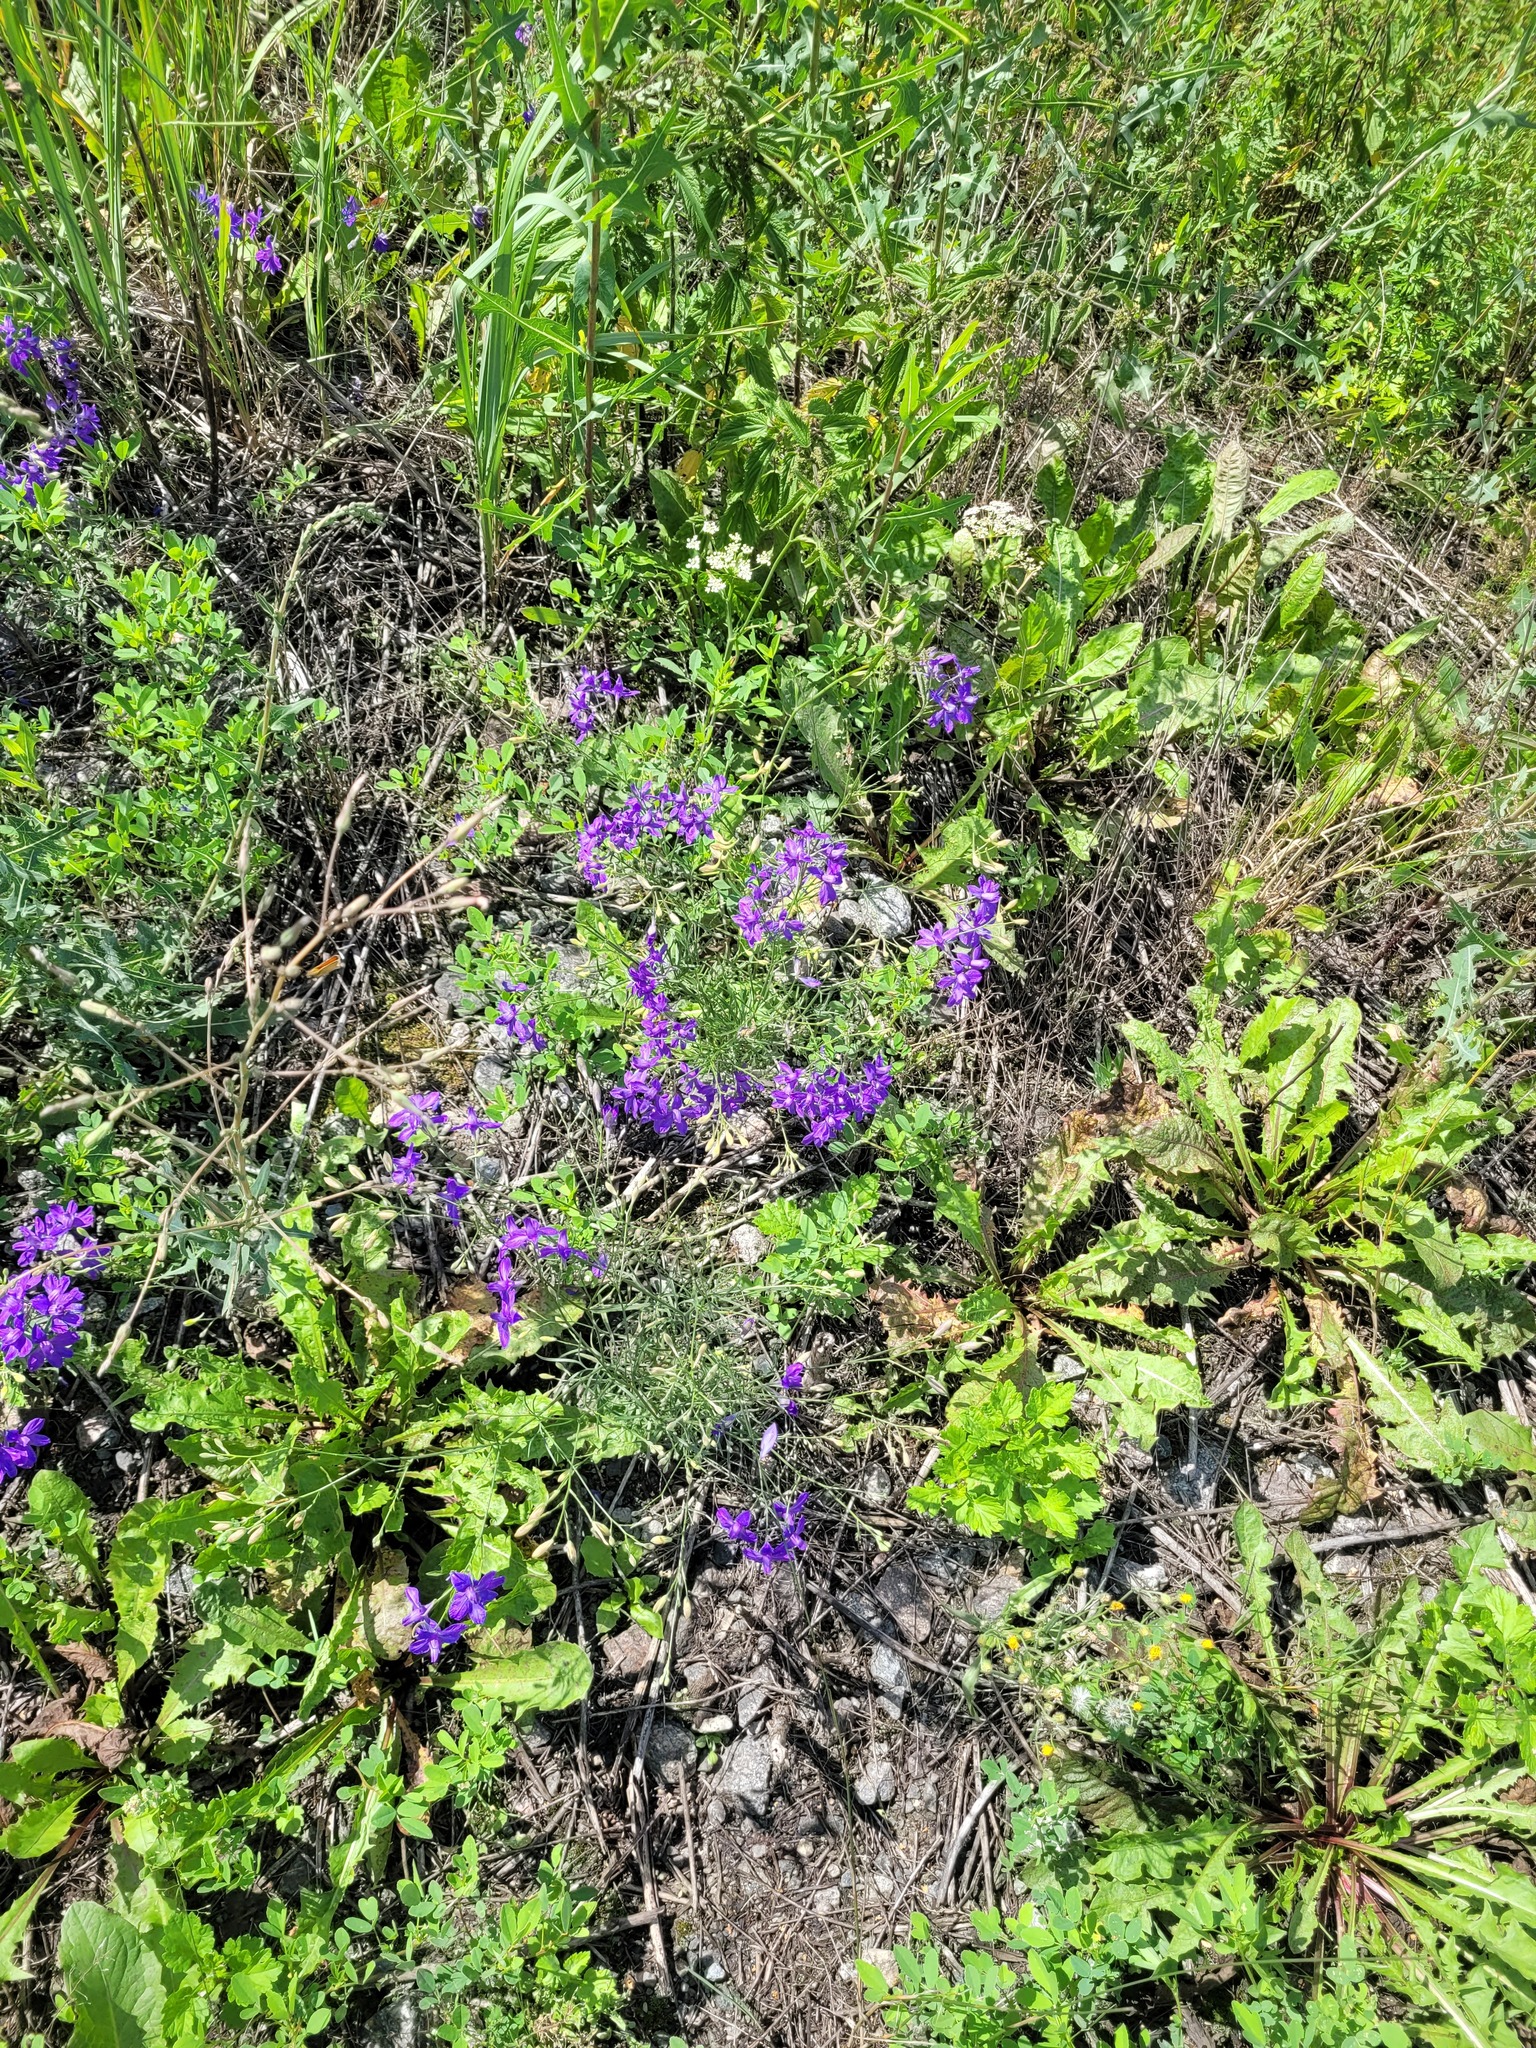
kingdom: Plantae
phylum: Tracheophyta
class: Magnoliopsida
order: Ranunculales
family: Ranunculaceae
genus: Delphinium
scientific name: Delphinium consolida
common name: Branching larkspur
